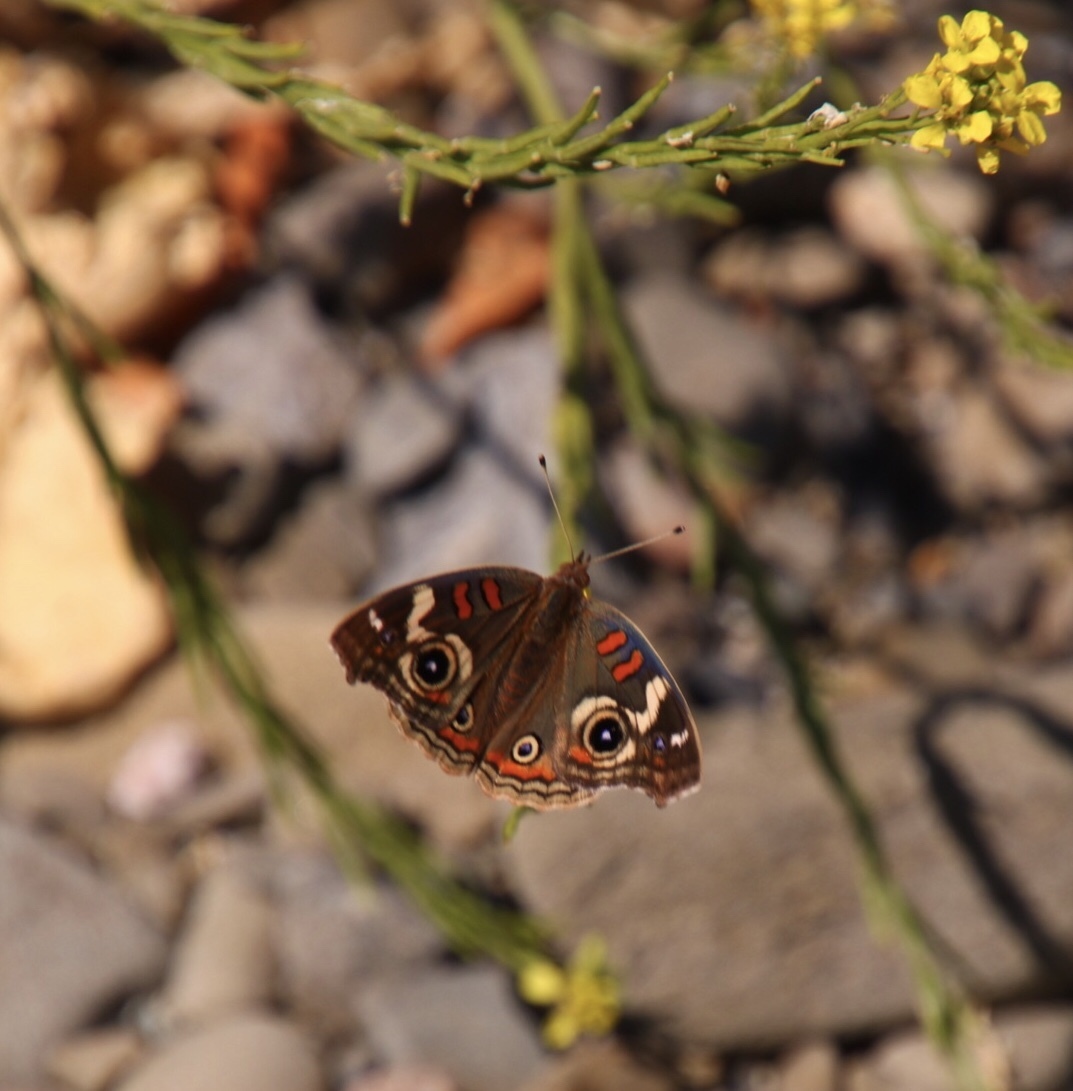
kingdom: Animalia
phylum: Arthropoda
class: Insecta
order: Lepidoptera
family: Nymphalidae
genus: Junonia
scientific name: Junonia grisea
